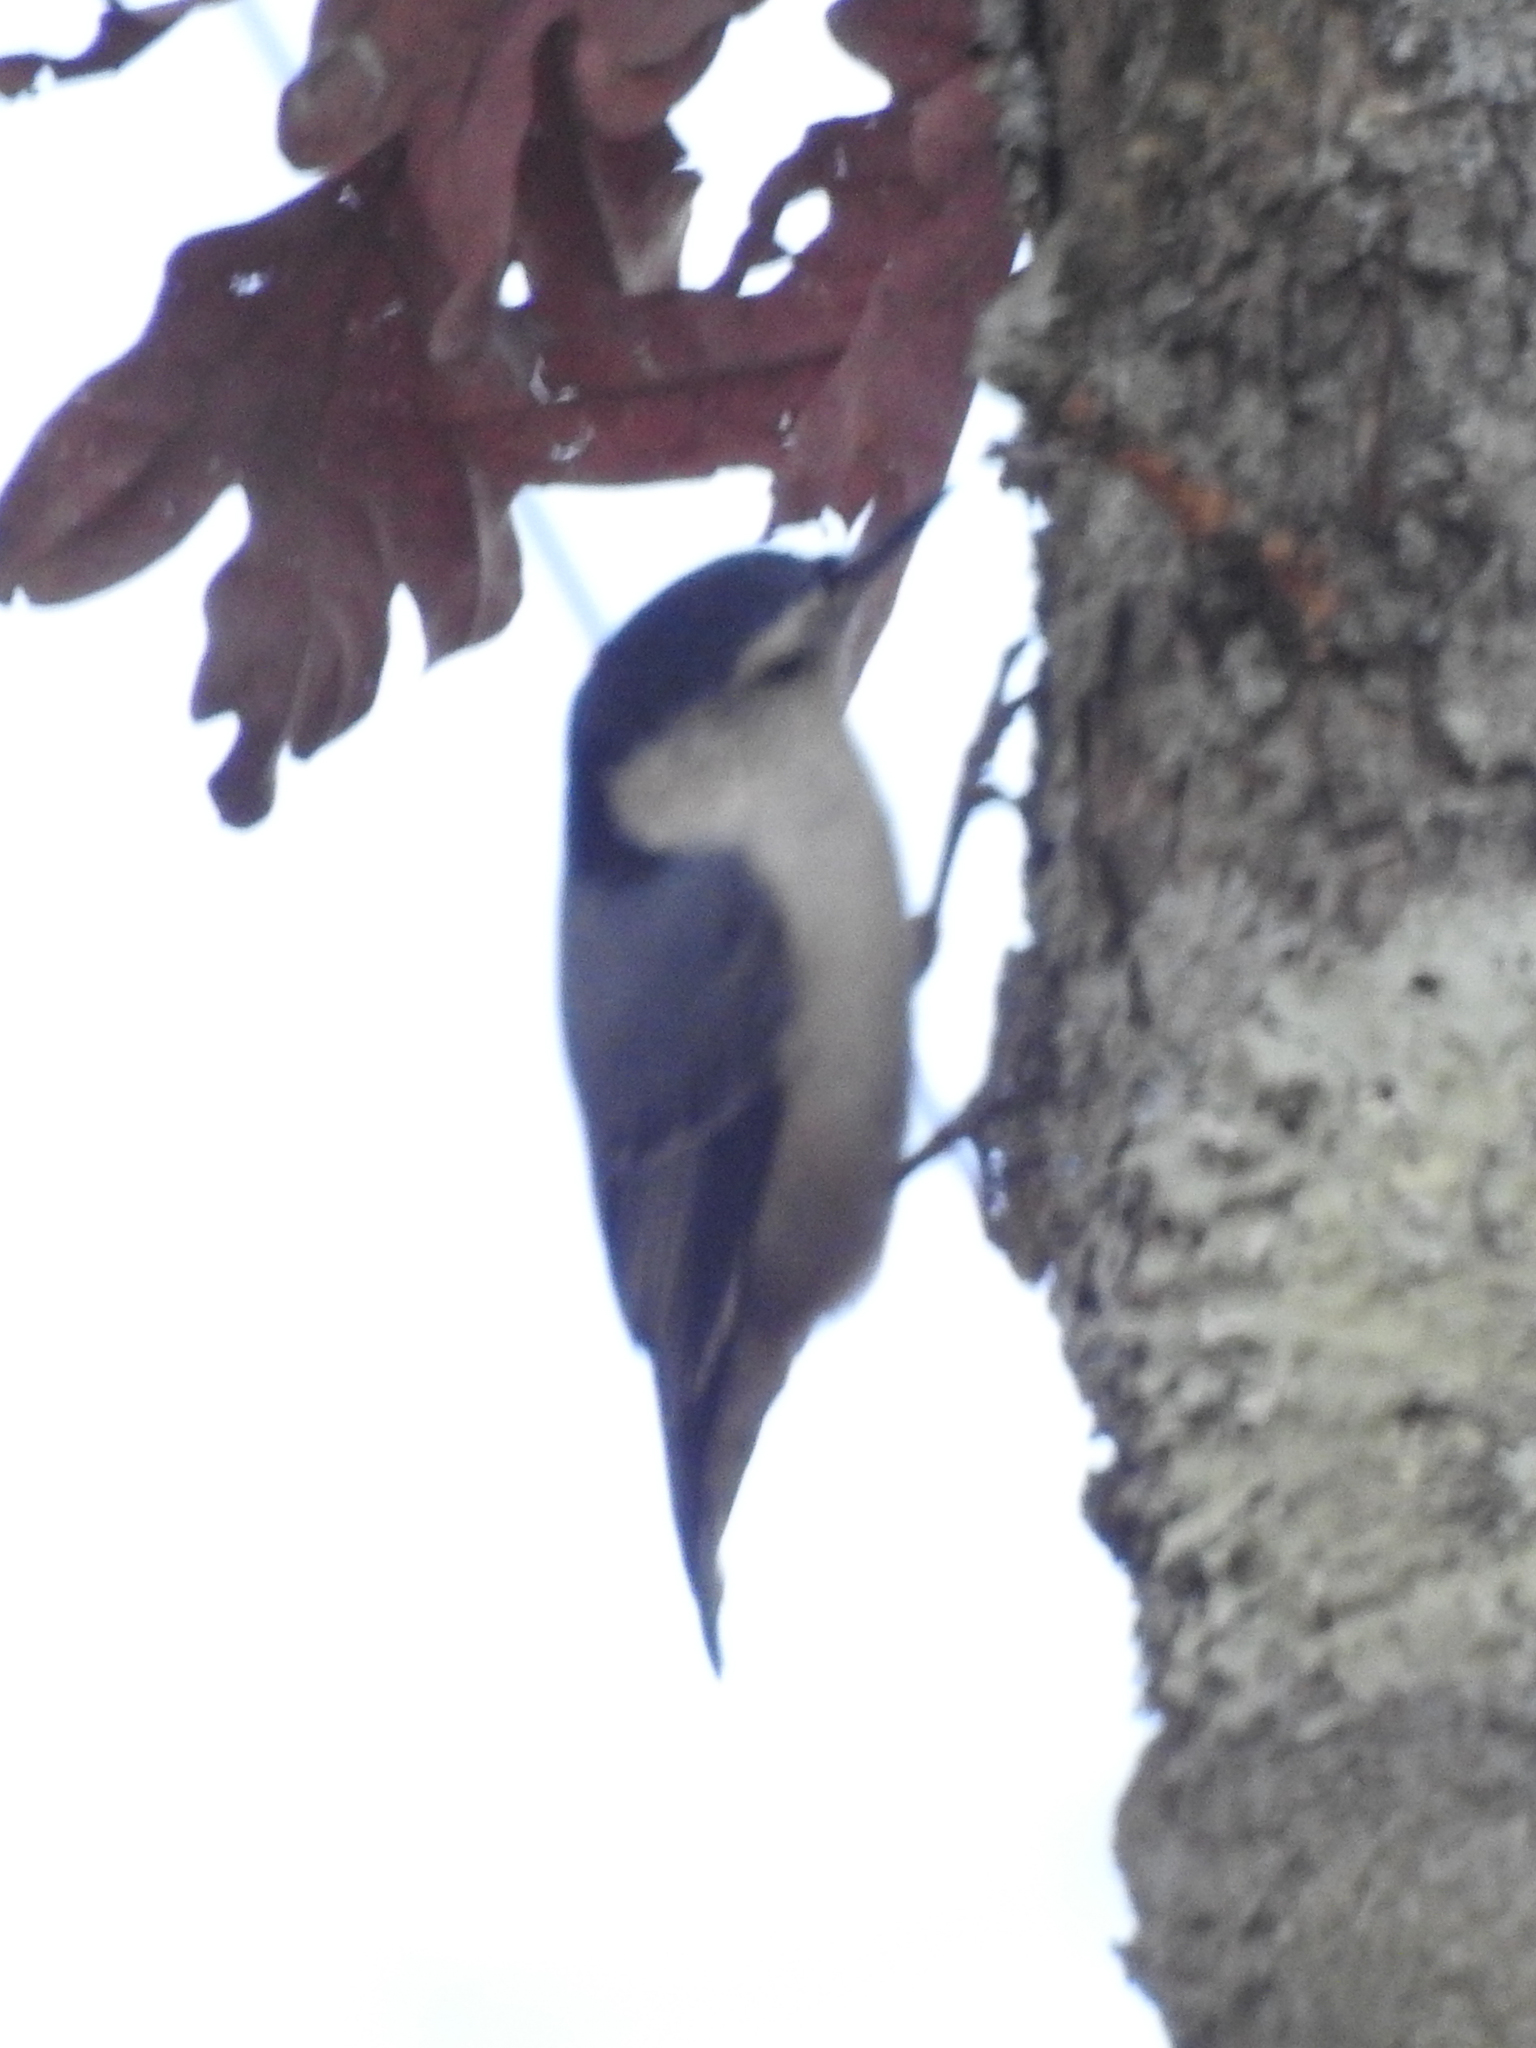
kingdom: Animalia
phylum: Chordata
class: Aves
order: Passeriformes
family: Sittidae
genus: Sitta
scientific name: Sitta carolinensis
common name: White-breasted nuthatch
